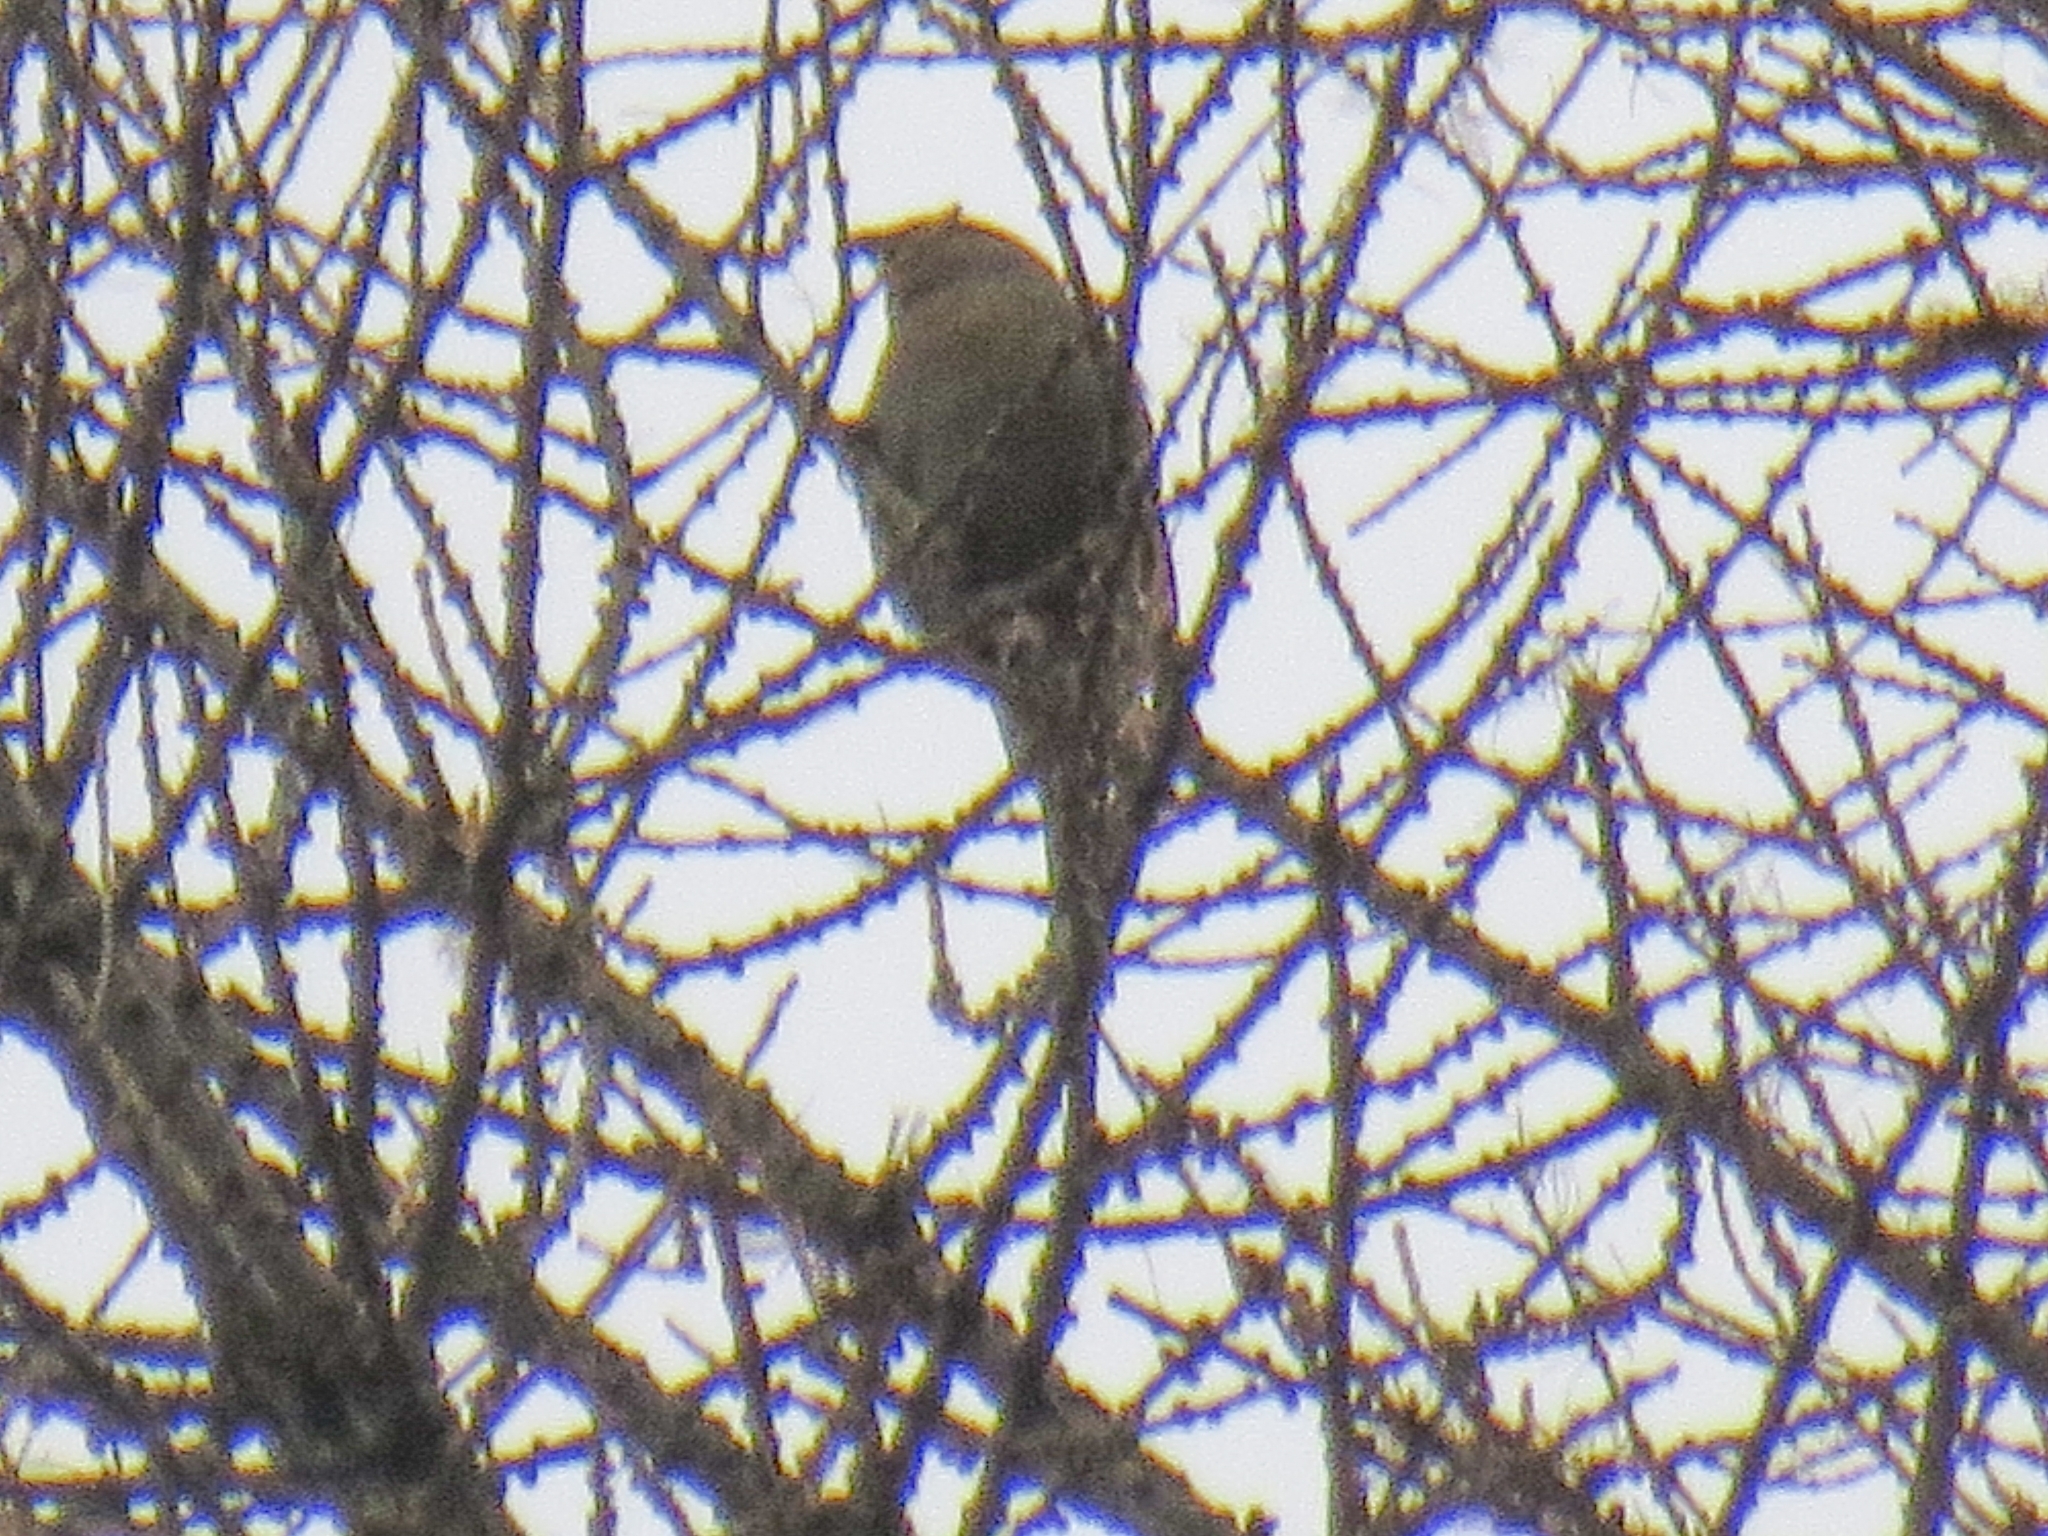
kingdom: Animalia
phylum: Chordata
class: Aves
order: Passeriformes
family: Fringillidae
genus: Pinicola
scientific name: Pinicola enucleator
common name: Pine grosbeak
